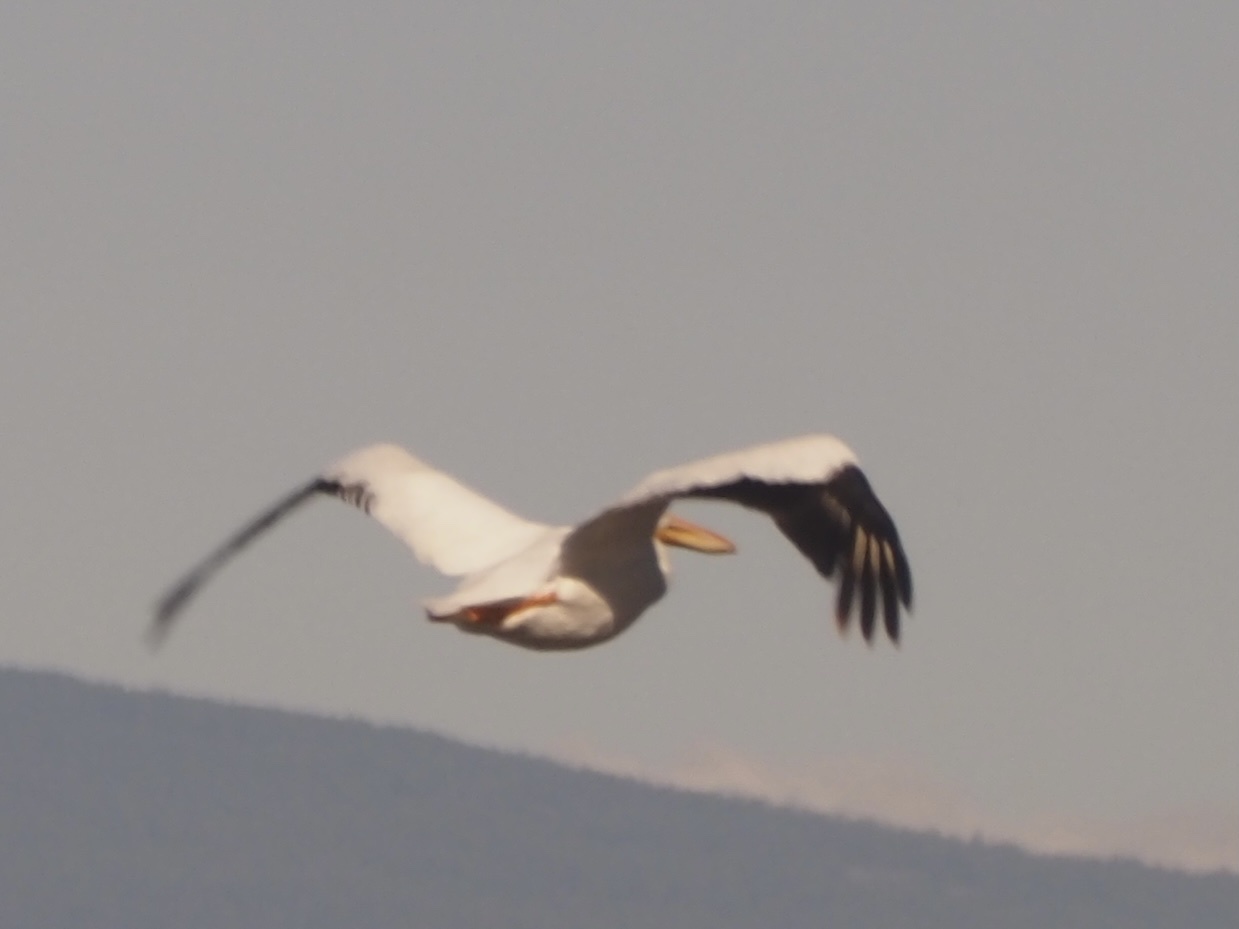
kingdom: Animalia
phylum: Chordata
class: Aves
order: Pelecaniformes
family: Pelecanidae
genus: Pelecanus
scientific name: Pelecanus erythrorhynchos
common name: American white pelican
